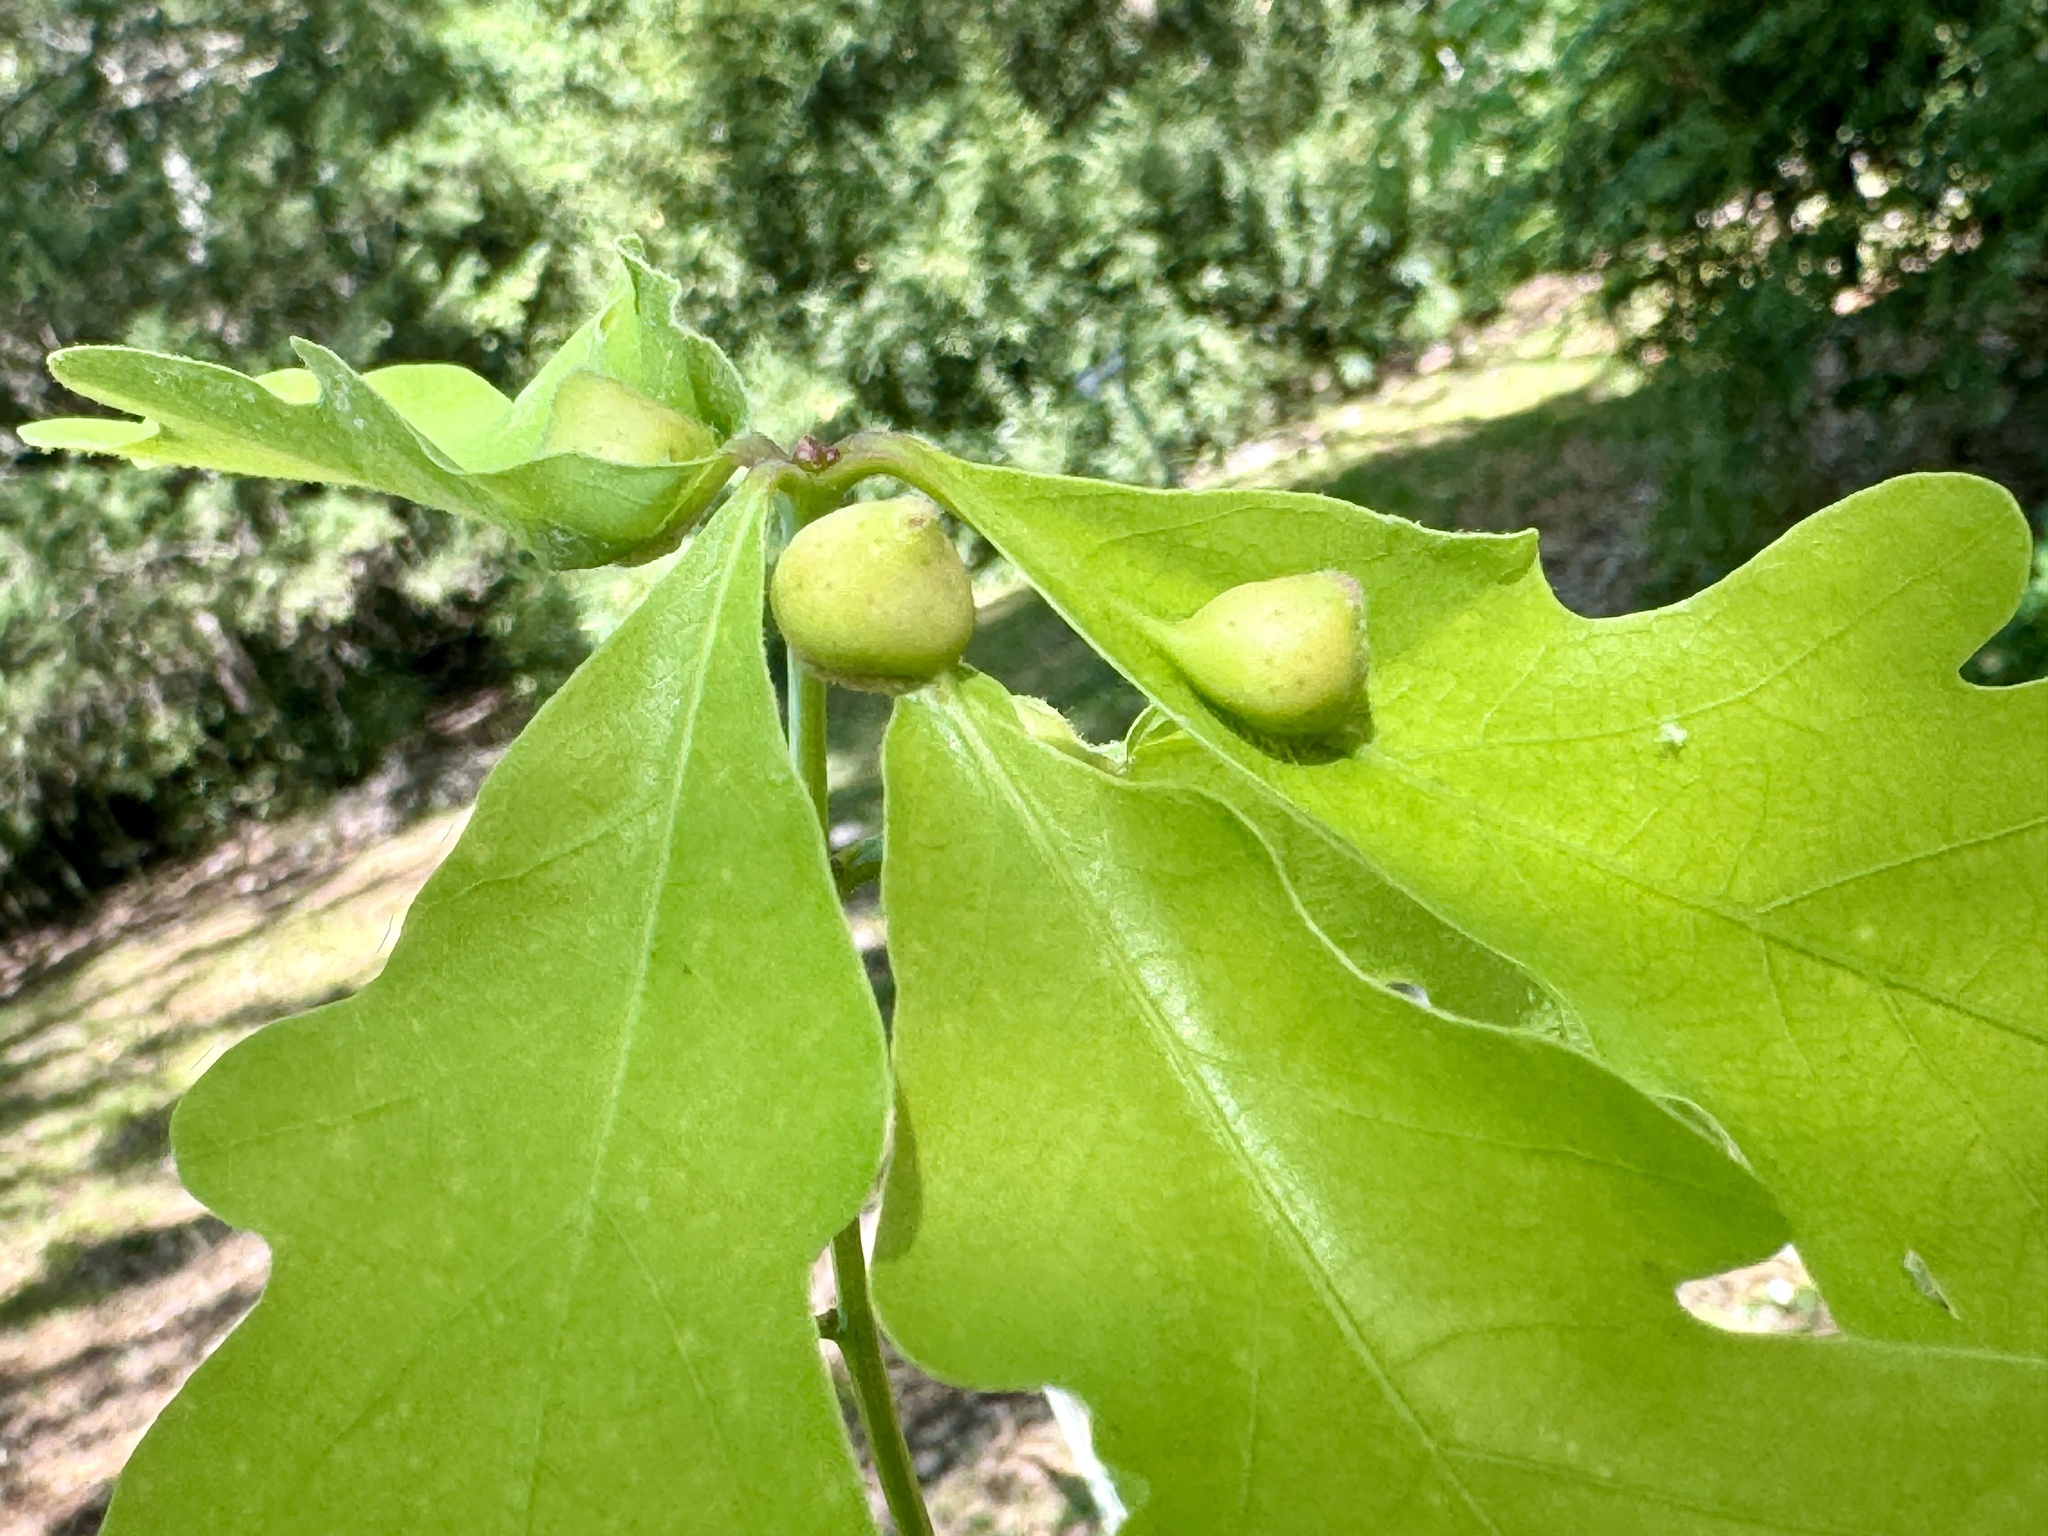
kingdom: Animalia
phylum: Arthropoda
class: Insecta
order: Hymenoptera
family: Cynipidae
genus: Andricus
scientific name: Andricus
